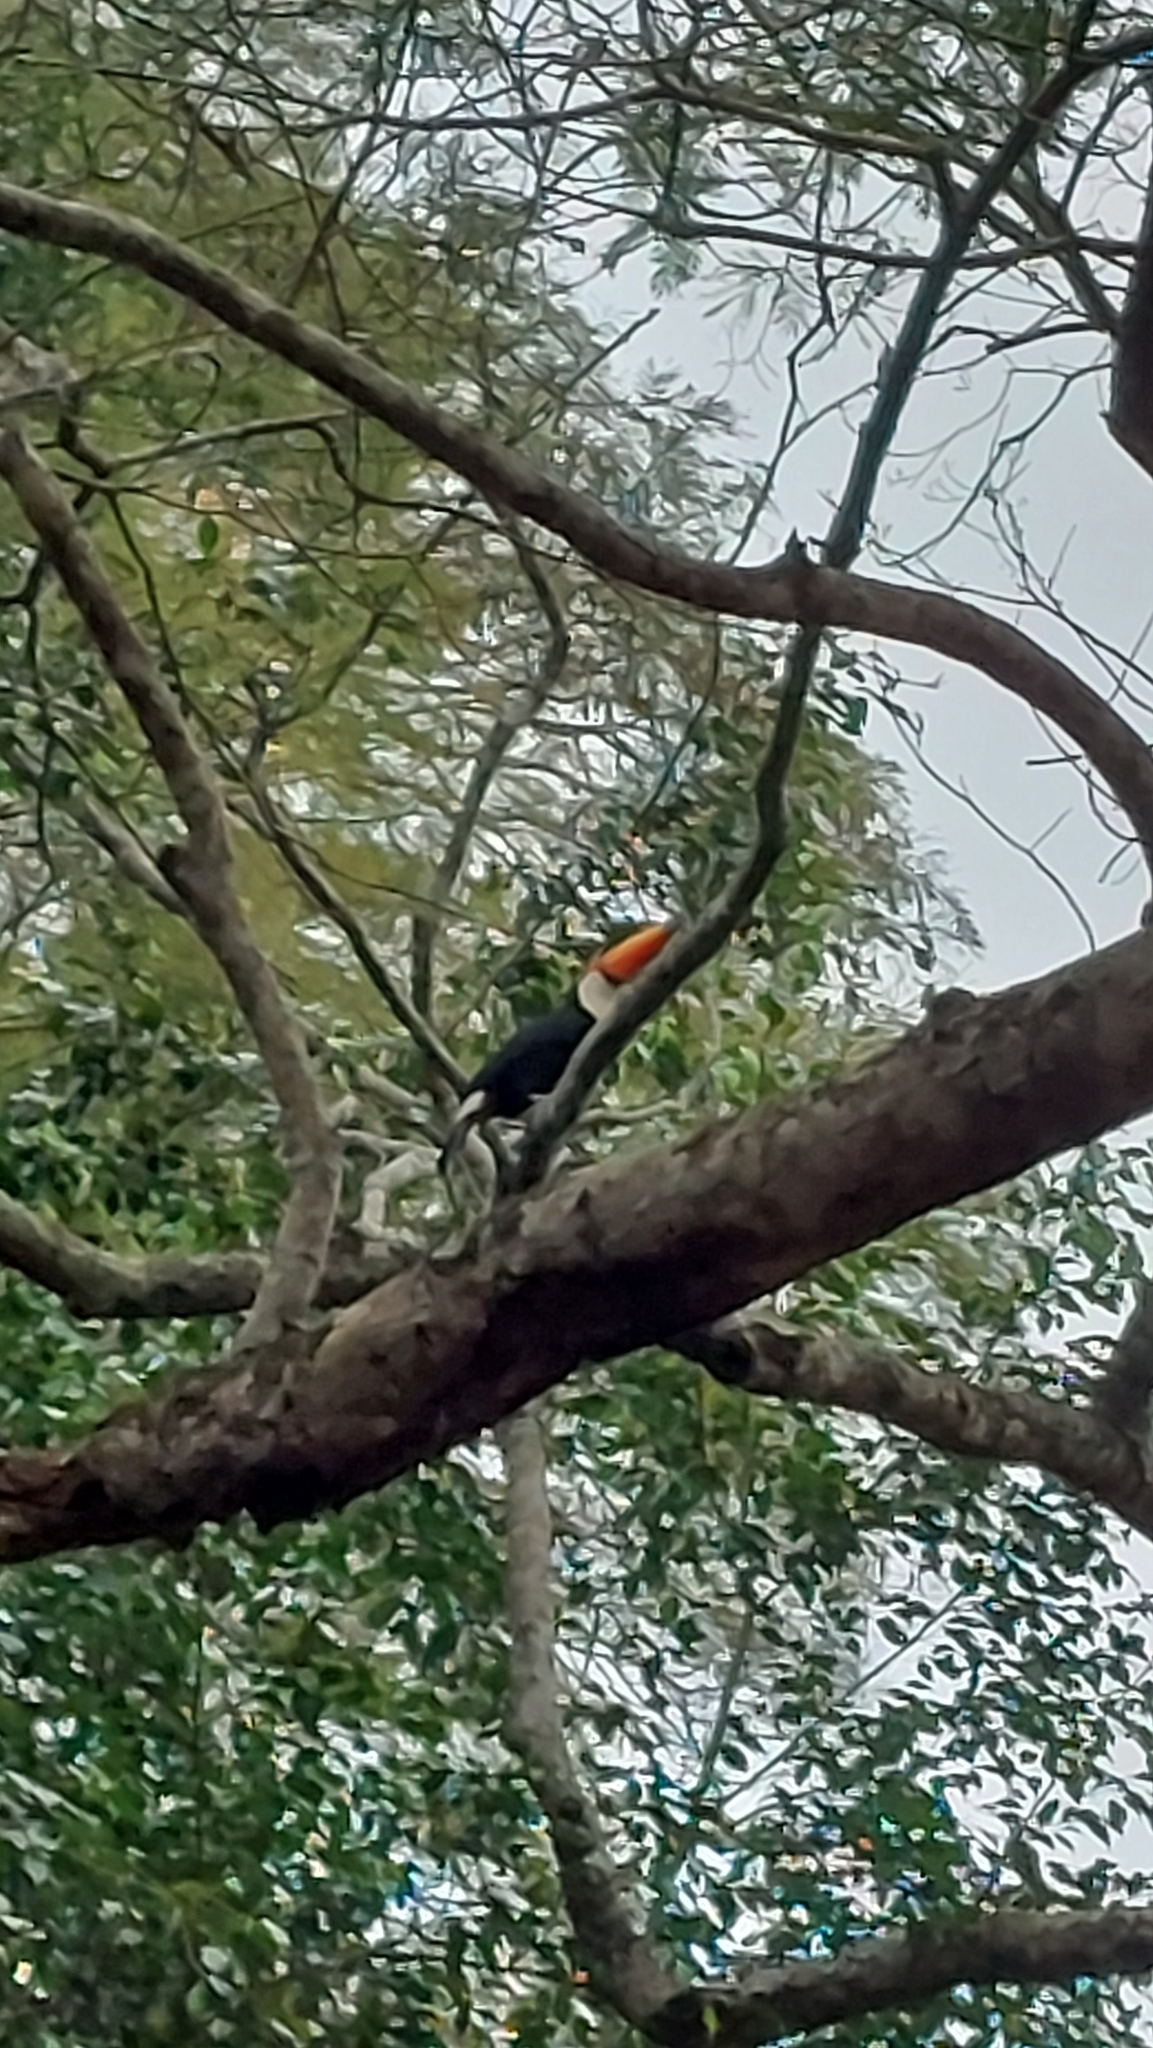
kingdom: Animalia
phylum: Chordata
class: Aves
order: Piciformes
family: Ramphastidae
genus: Ramphastos
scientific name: Ramphastos toco
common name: Toco toucan
